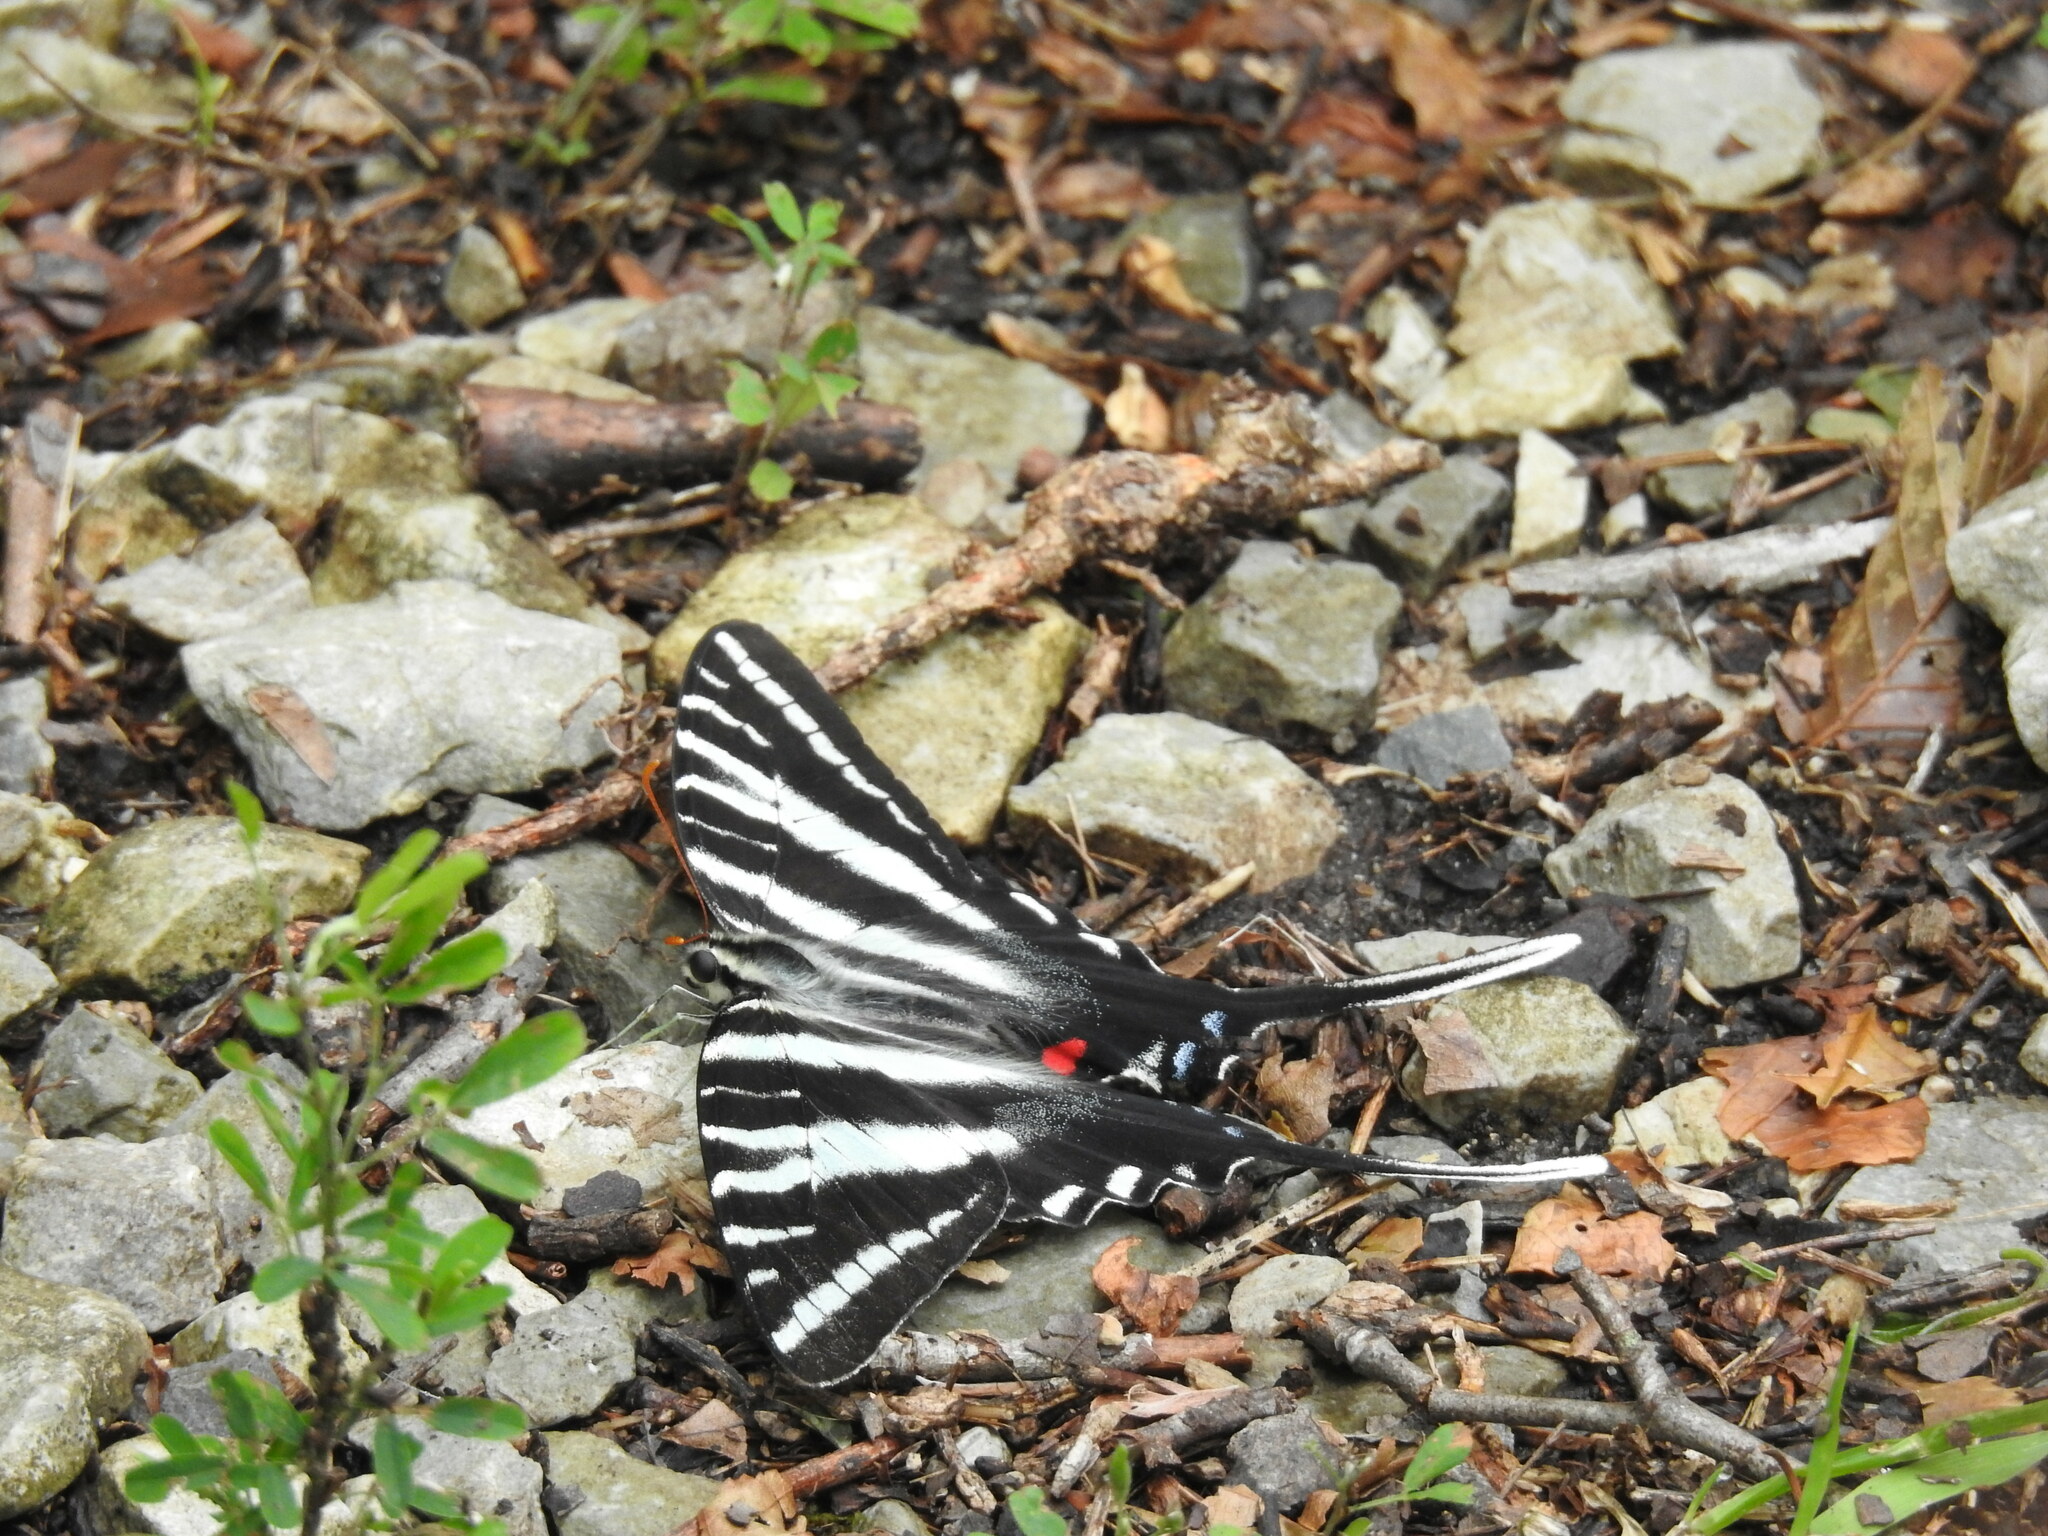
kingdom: Animalia
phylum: Arthropoda
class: Insecta
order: Lepidoptera
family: Papilionidae
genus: Protographium
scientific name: Protographium marcellus
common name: Zebra swallowtail
